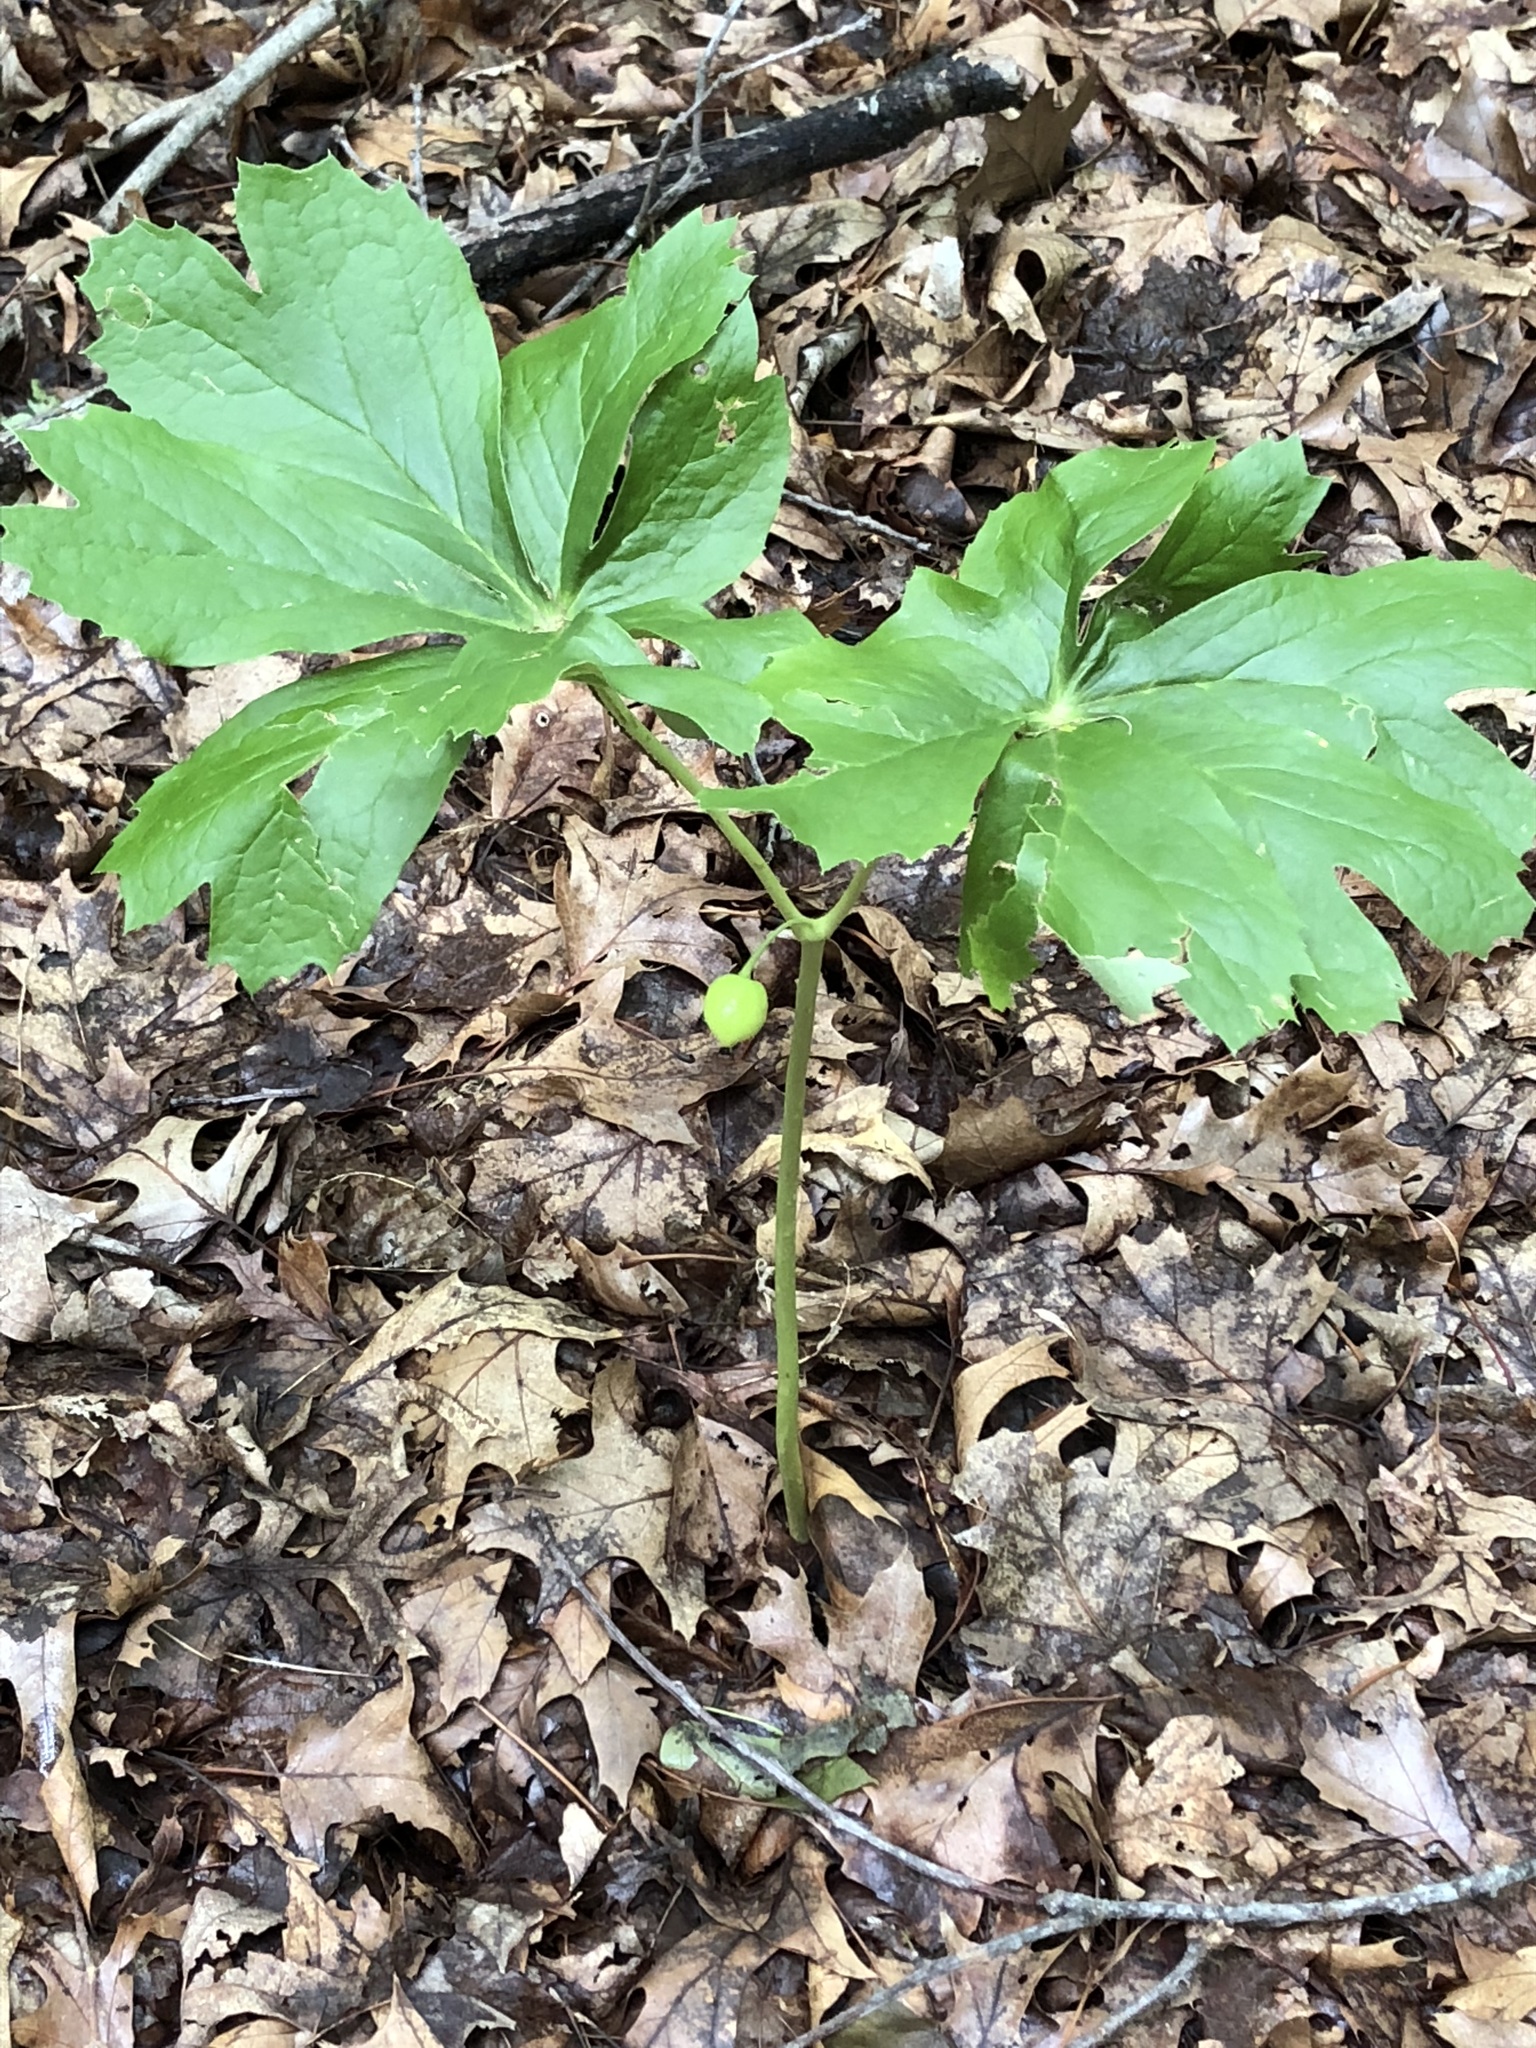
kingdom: Plantae
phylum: Tracheophyta
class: Magnoliopsida
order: Ranunculales
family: Berberidaceae
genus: Podophyllum
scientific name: Podophyllum peltatum
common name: Wild mandrake
